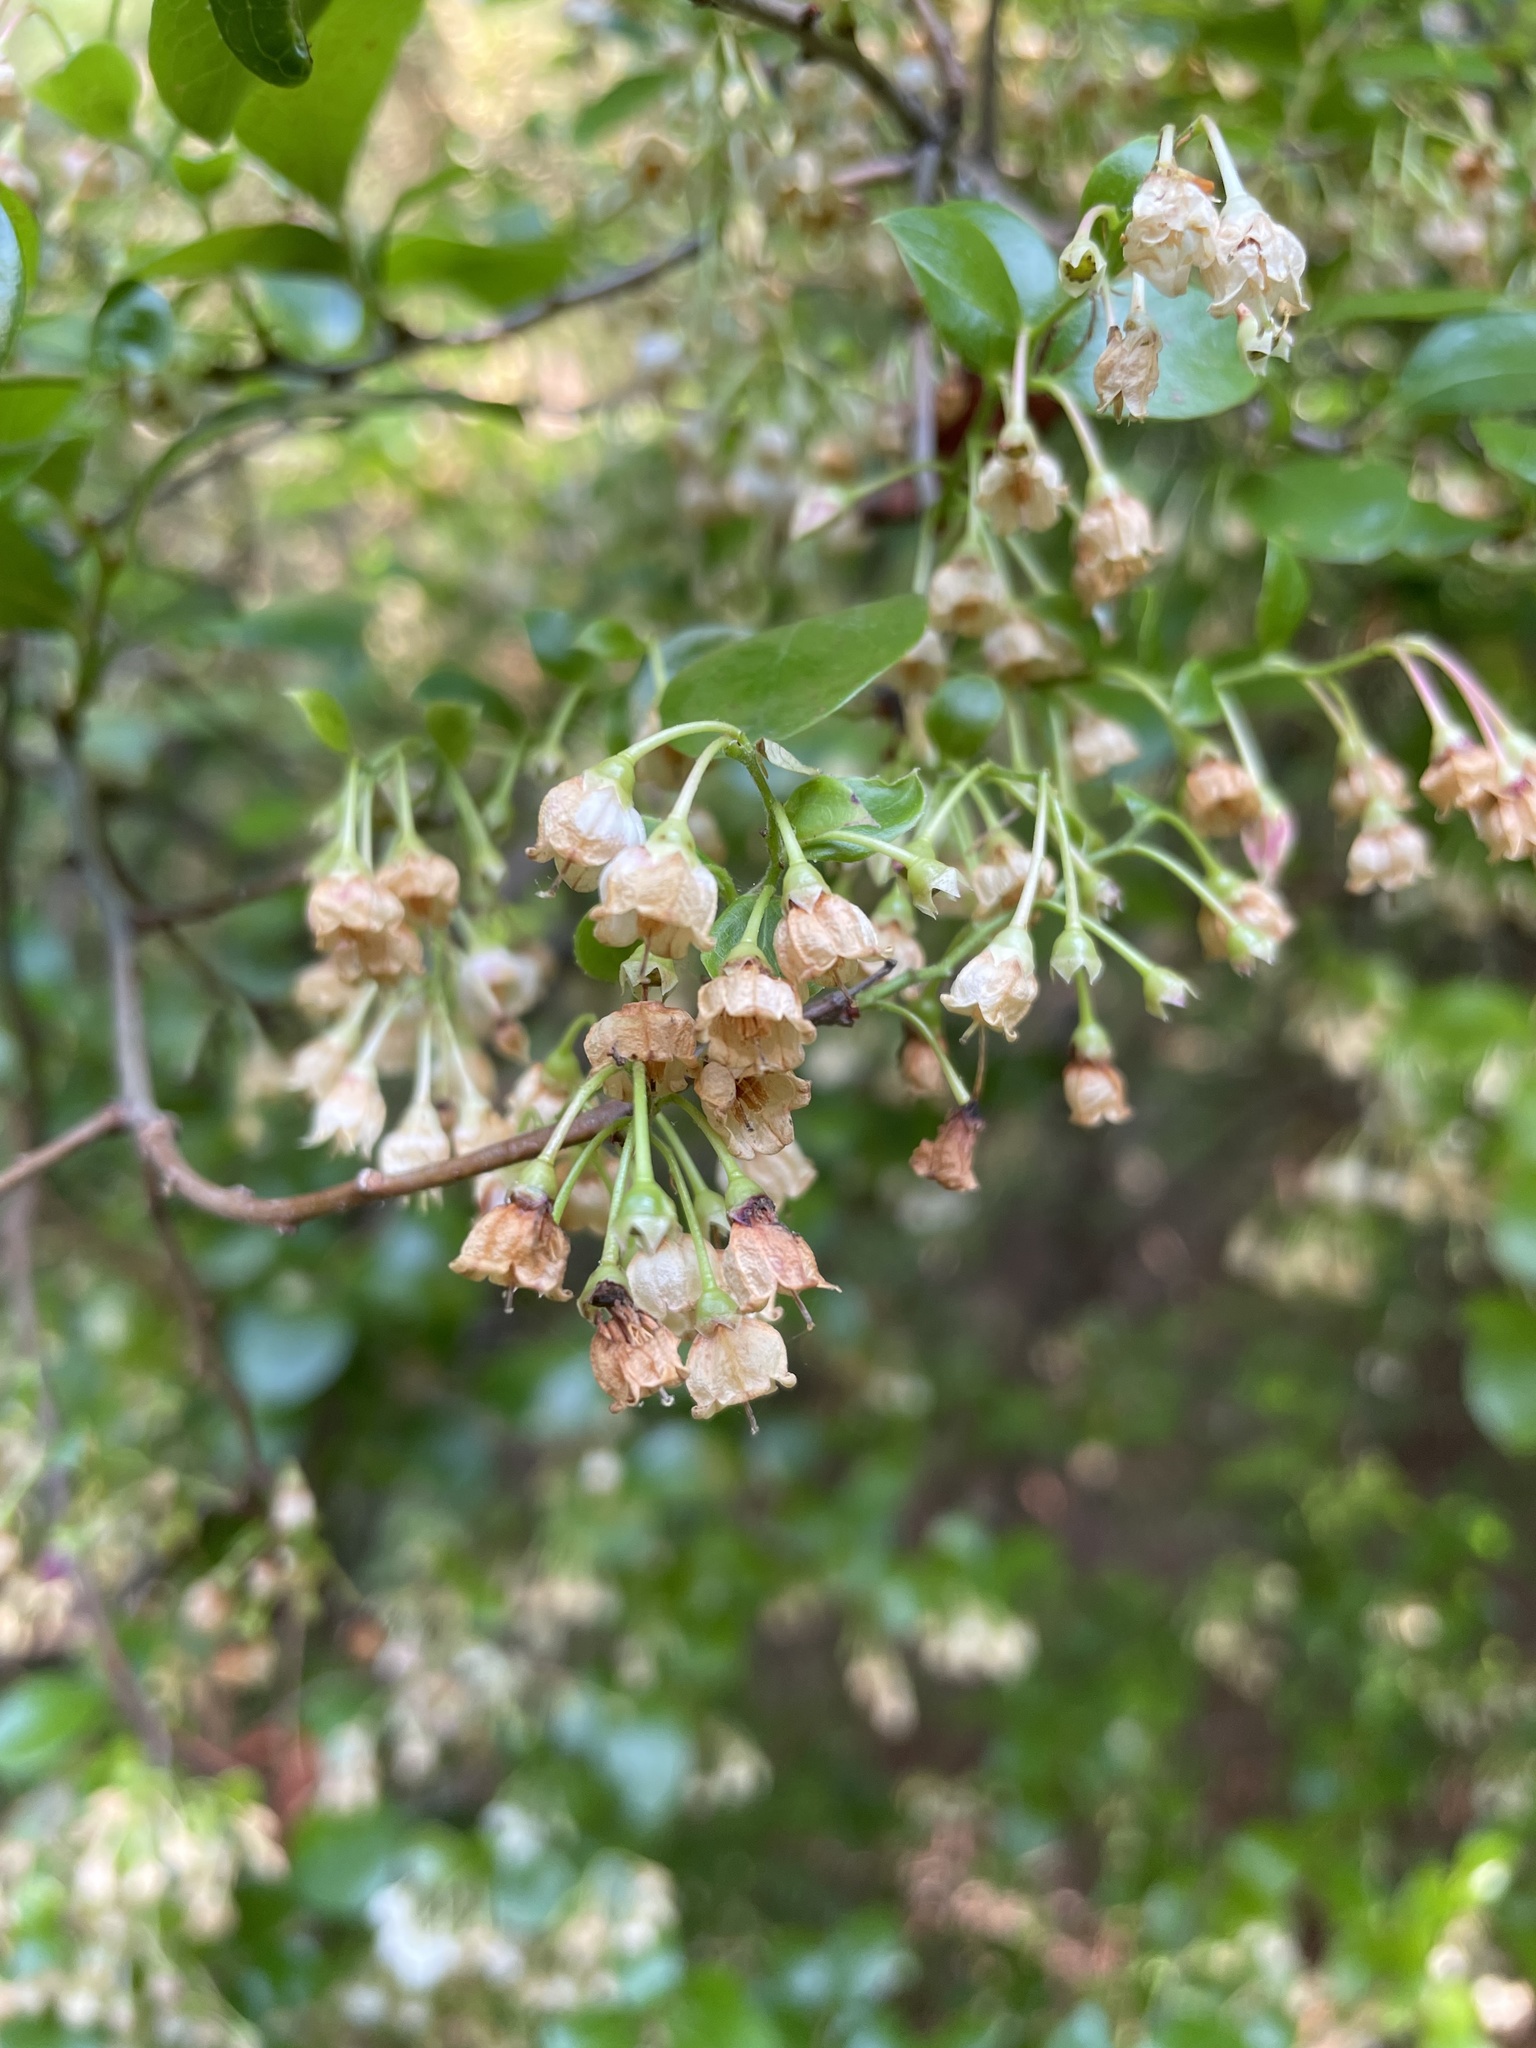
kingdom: Plantae
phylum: Tracheophyta
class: Magnoliopsida
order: Ericales
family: Ericaceae
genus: Vaccinium
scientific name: Vaccinium arboreum
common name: Farkleberry
